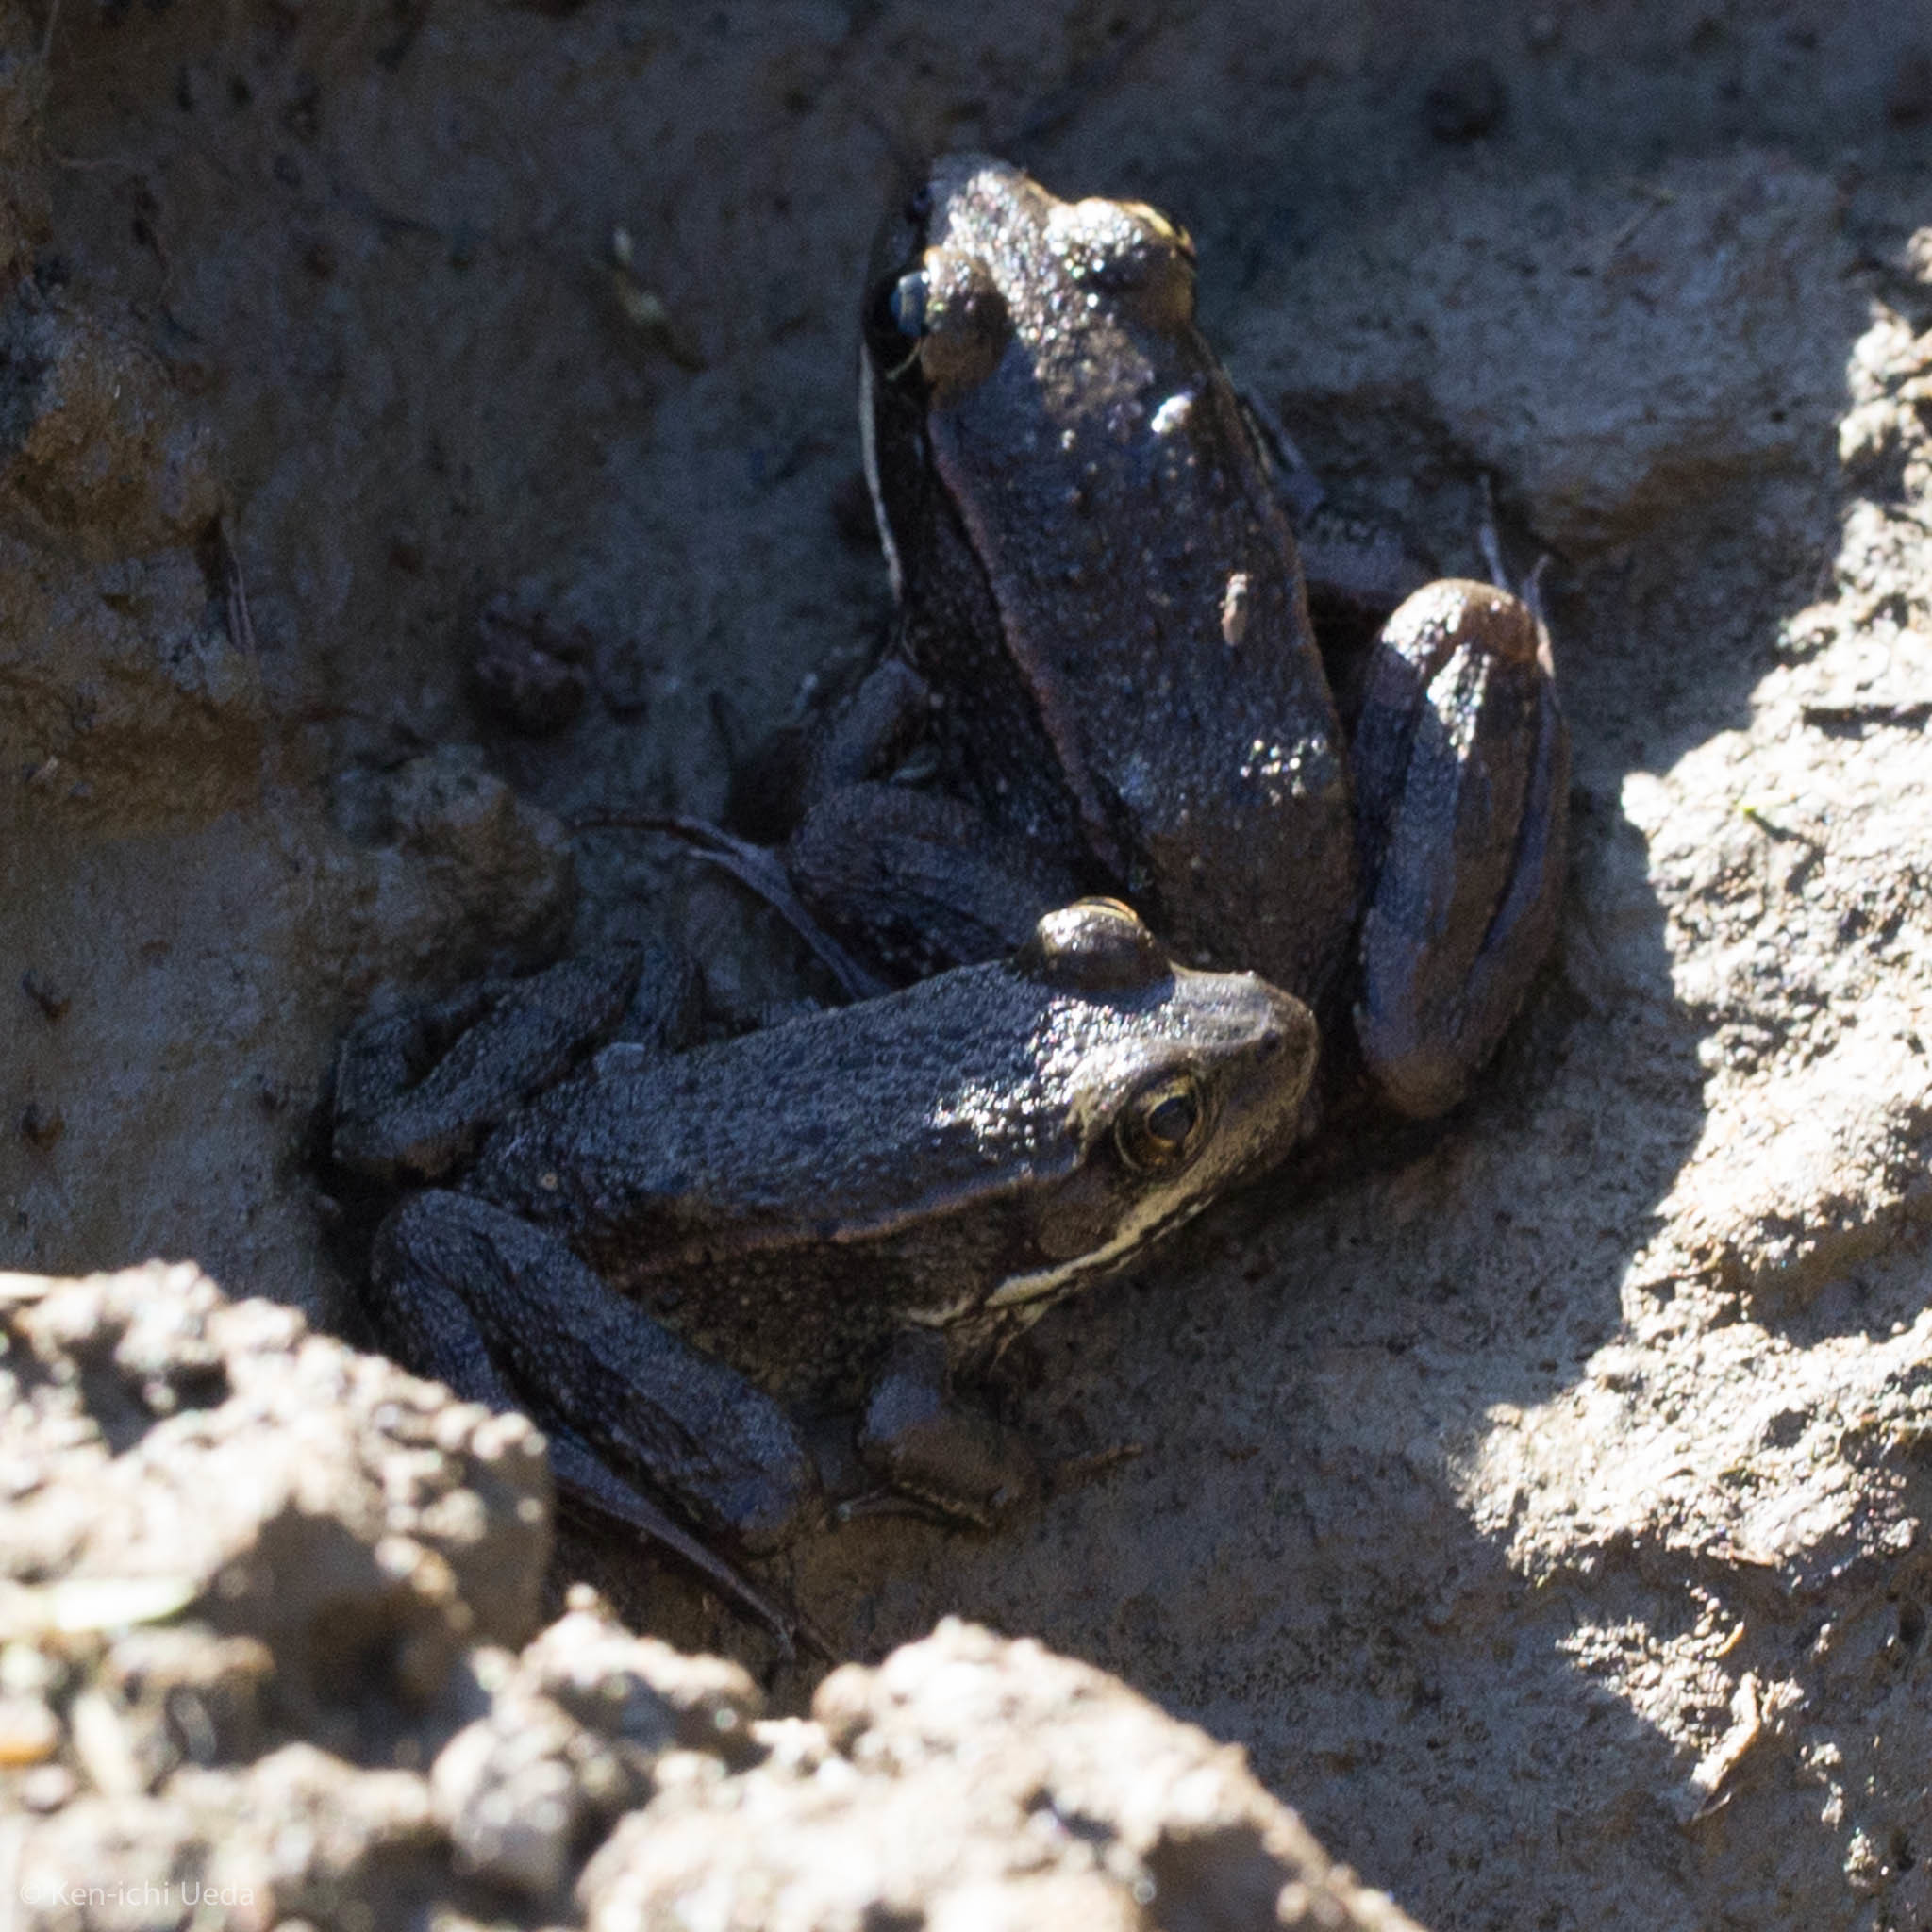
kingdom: Animalia
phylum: Chordata
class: Amphibia
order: Anura
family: Ranidae
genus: Rana
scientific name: Rana draytonii
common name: California red-legged frog
